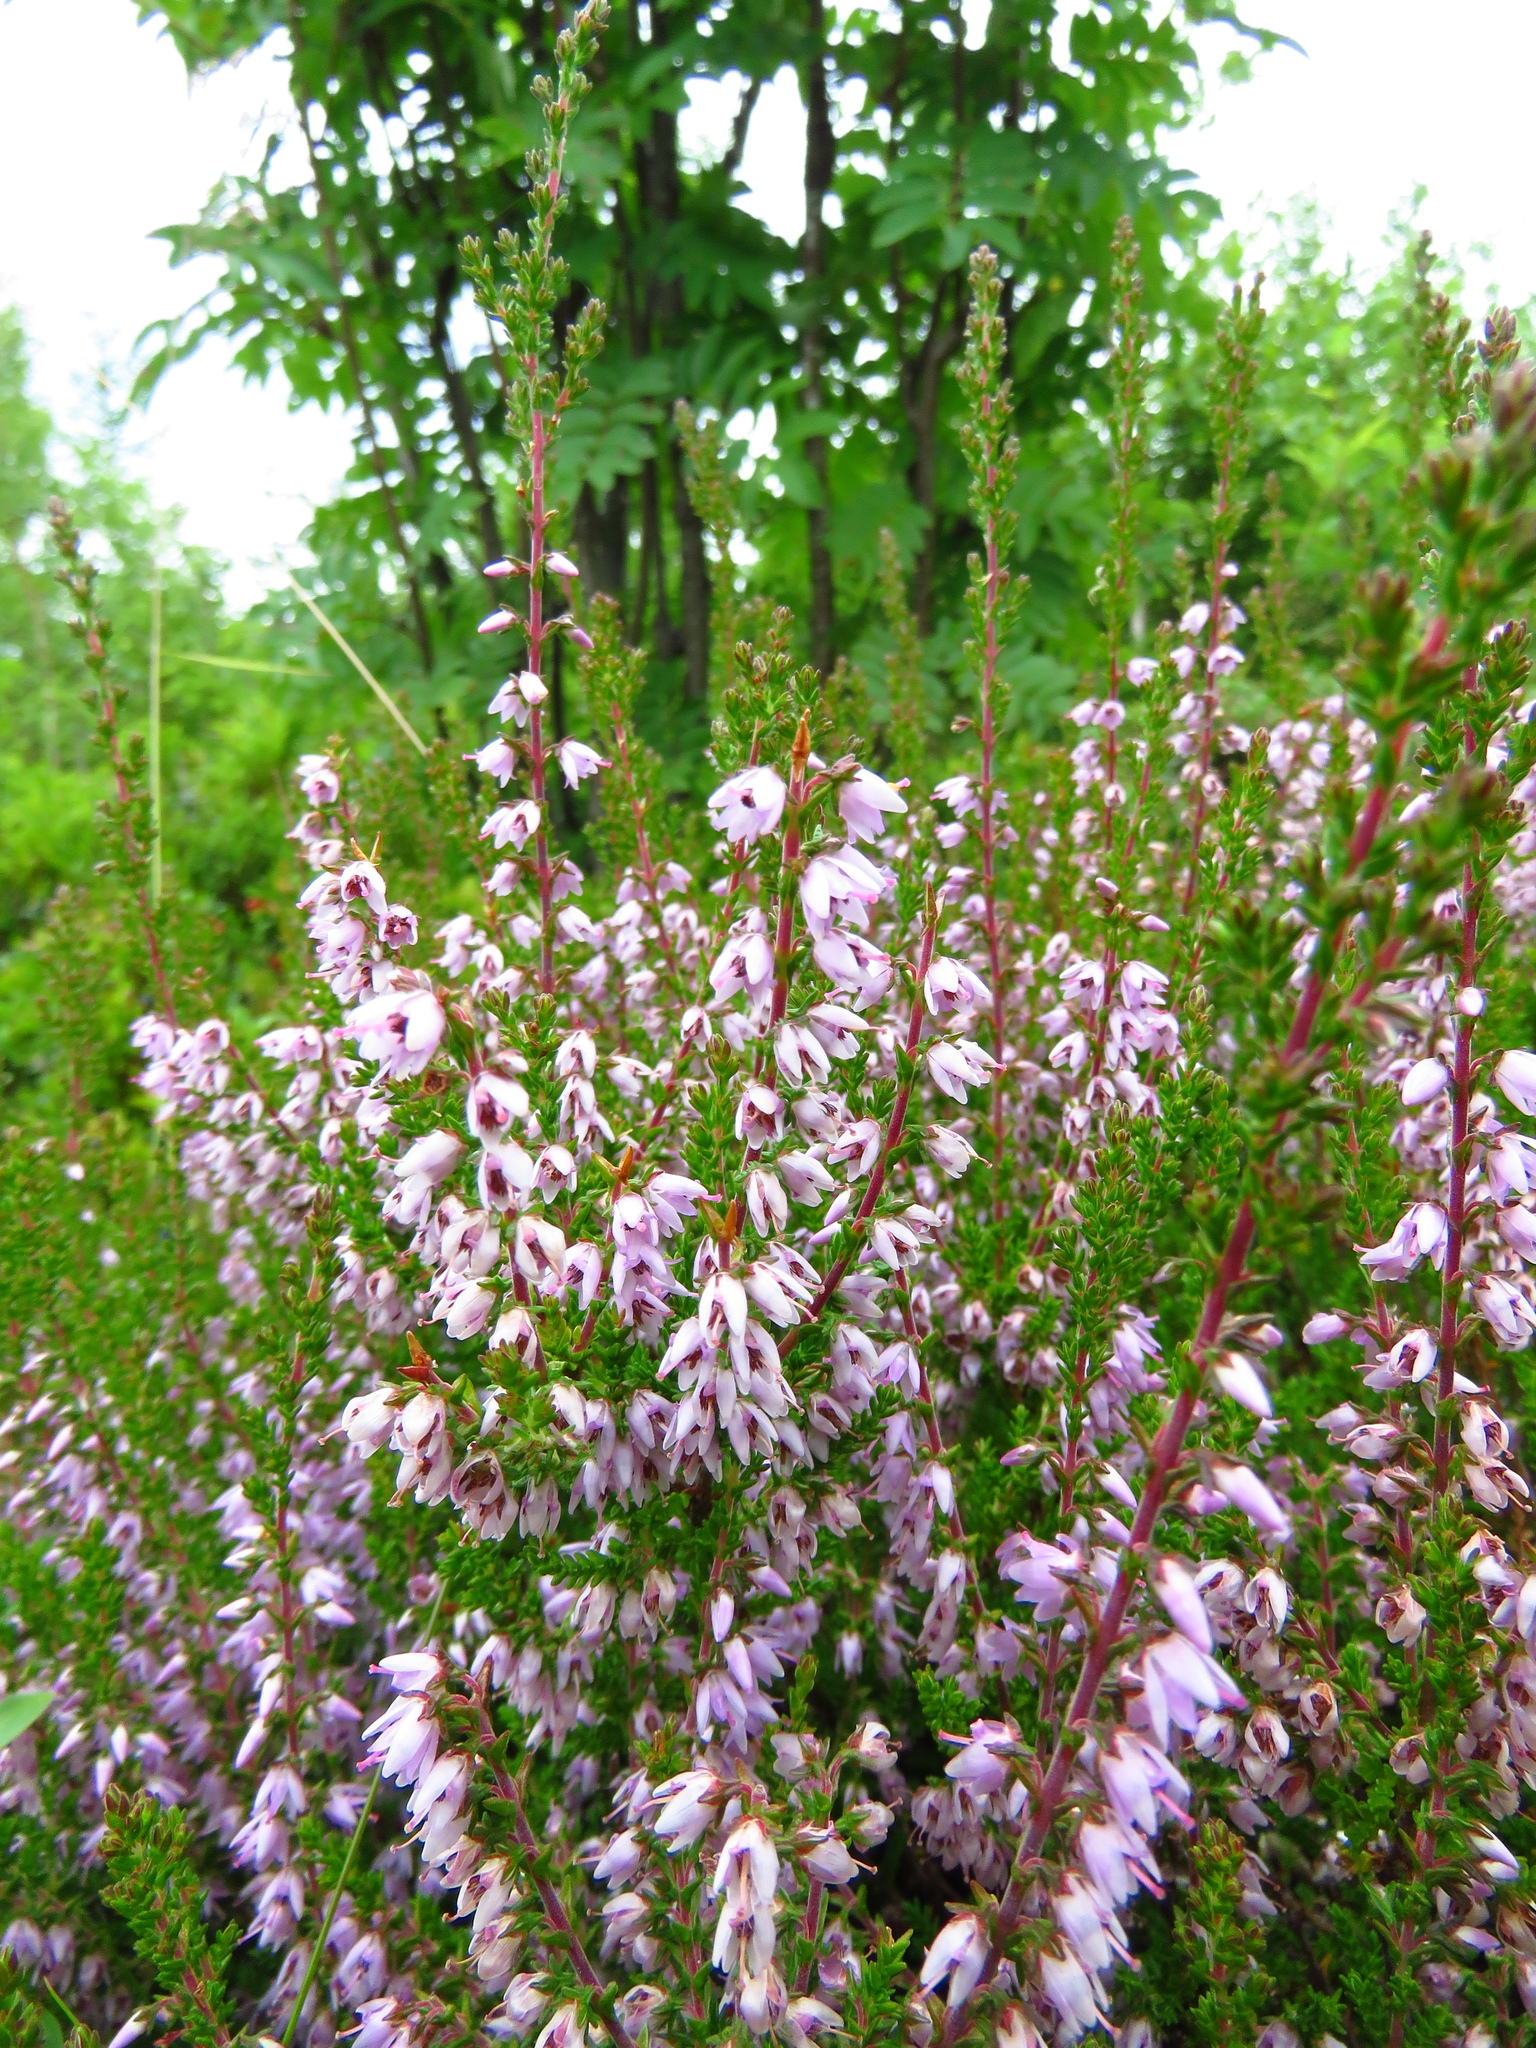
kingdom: Plantae
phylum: Tracheophyta
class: Magnoliopsida
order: Ericales
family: Ericaceae
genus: Calluna
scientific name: Calluna vulgaris
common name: Heather
